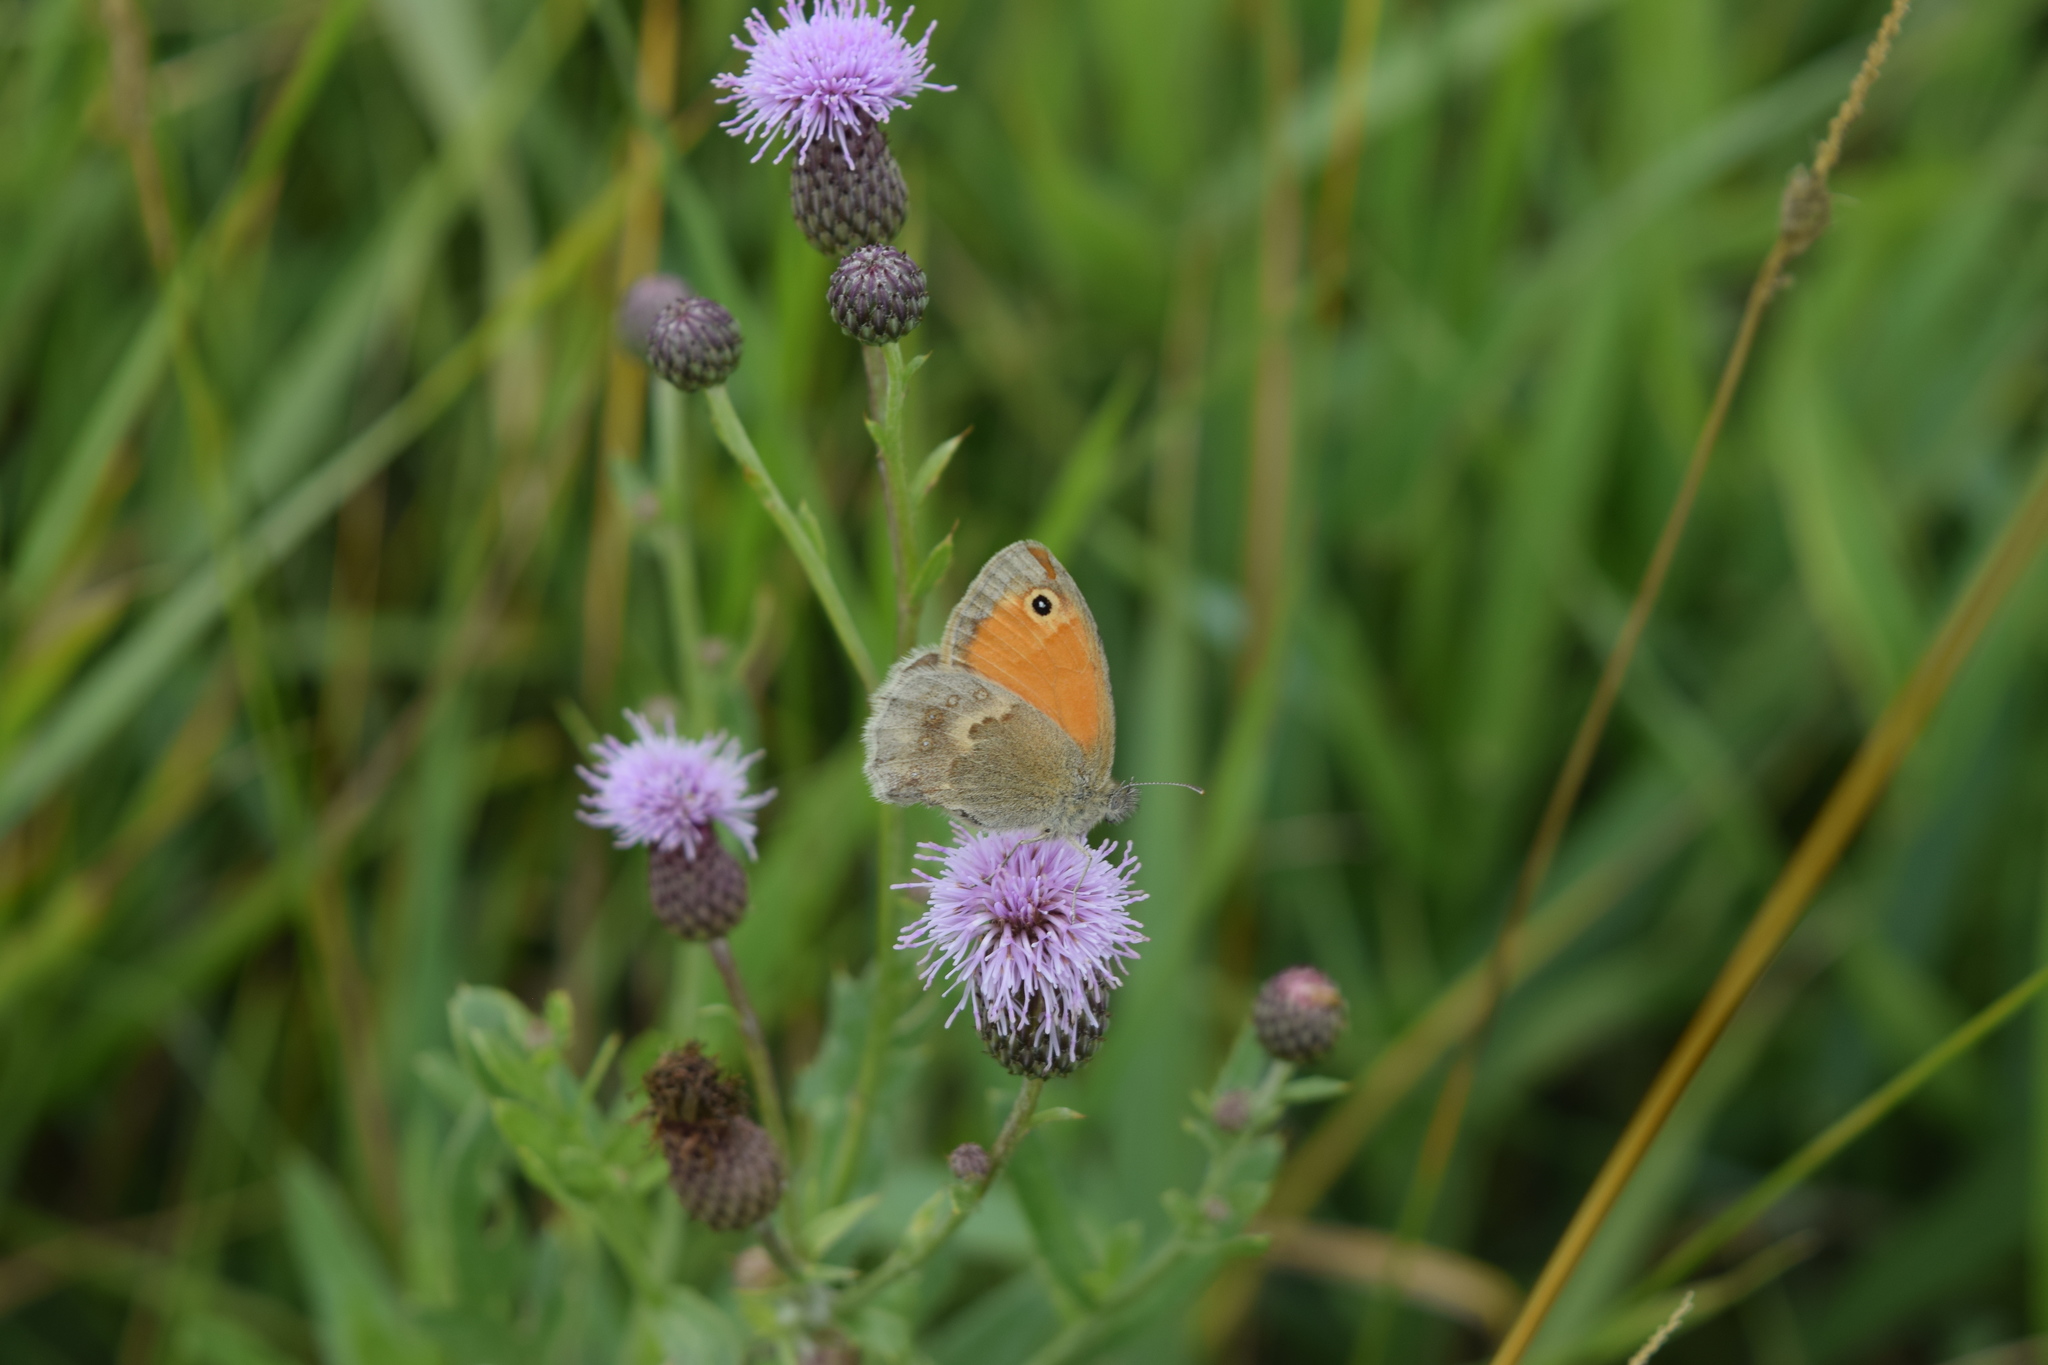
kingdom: Animalia
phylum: Arthropoda
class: Insecta
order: Lepidoptera
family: Nymphalidae
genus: Coenonympha
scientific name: Coenonympha pamphilus
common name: Small heath
